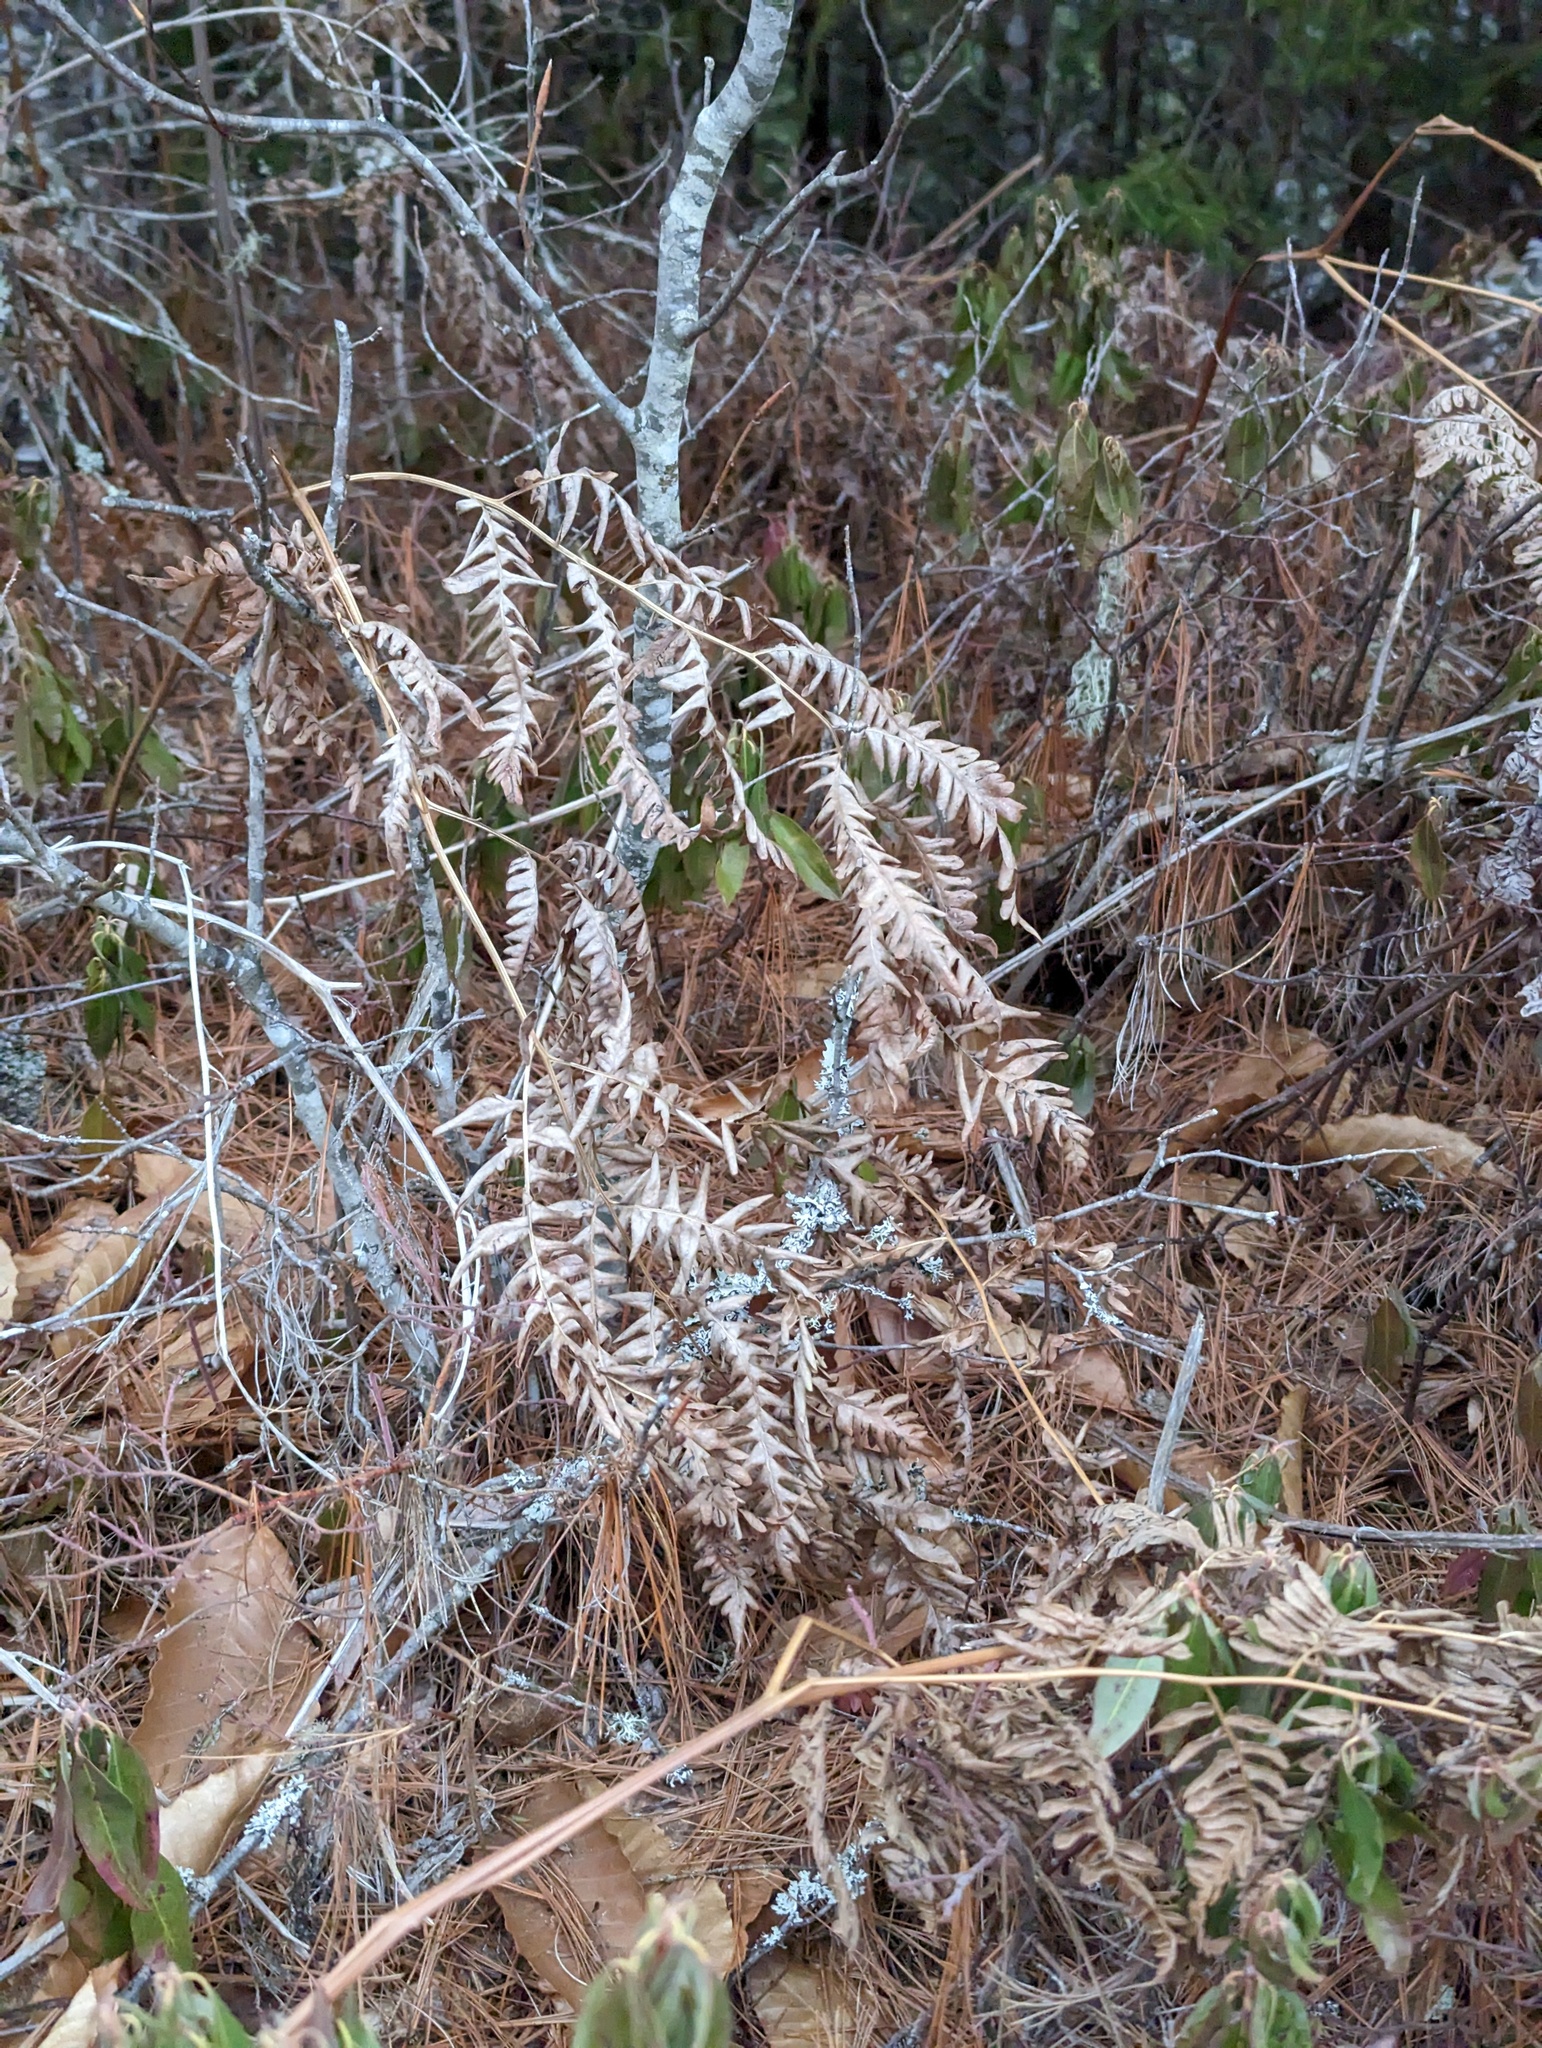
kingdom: Plantae
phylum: Tracheophyta
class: Polypodiopsida
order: Polypodiales
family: Dennstaedtiaceae
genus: Pteridium
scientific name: Pteridium aquilinum
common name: Bracken
